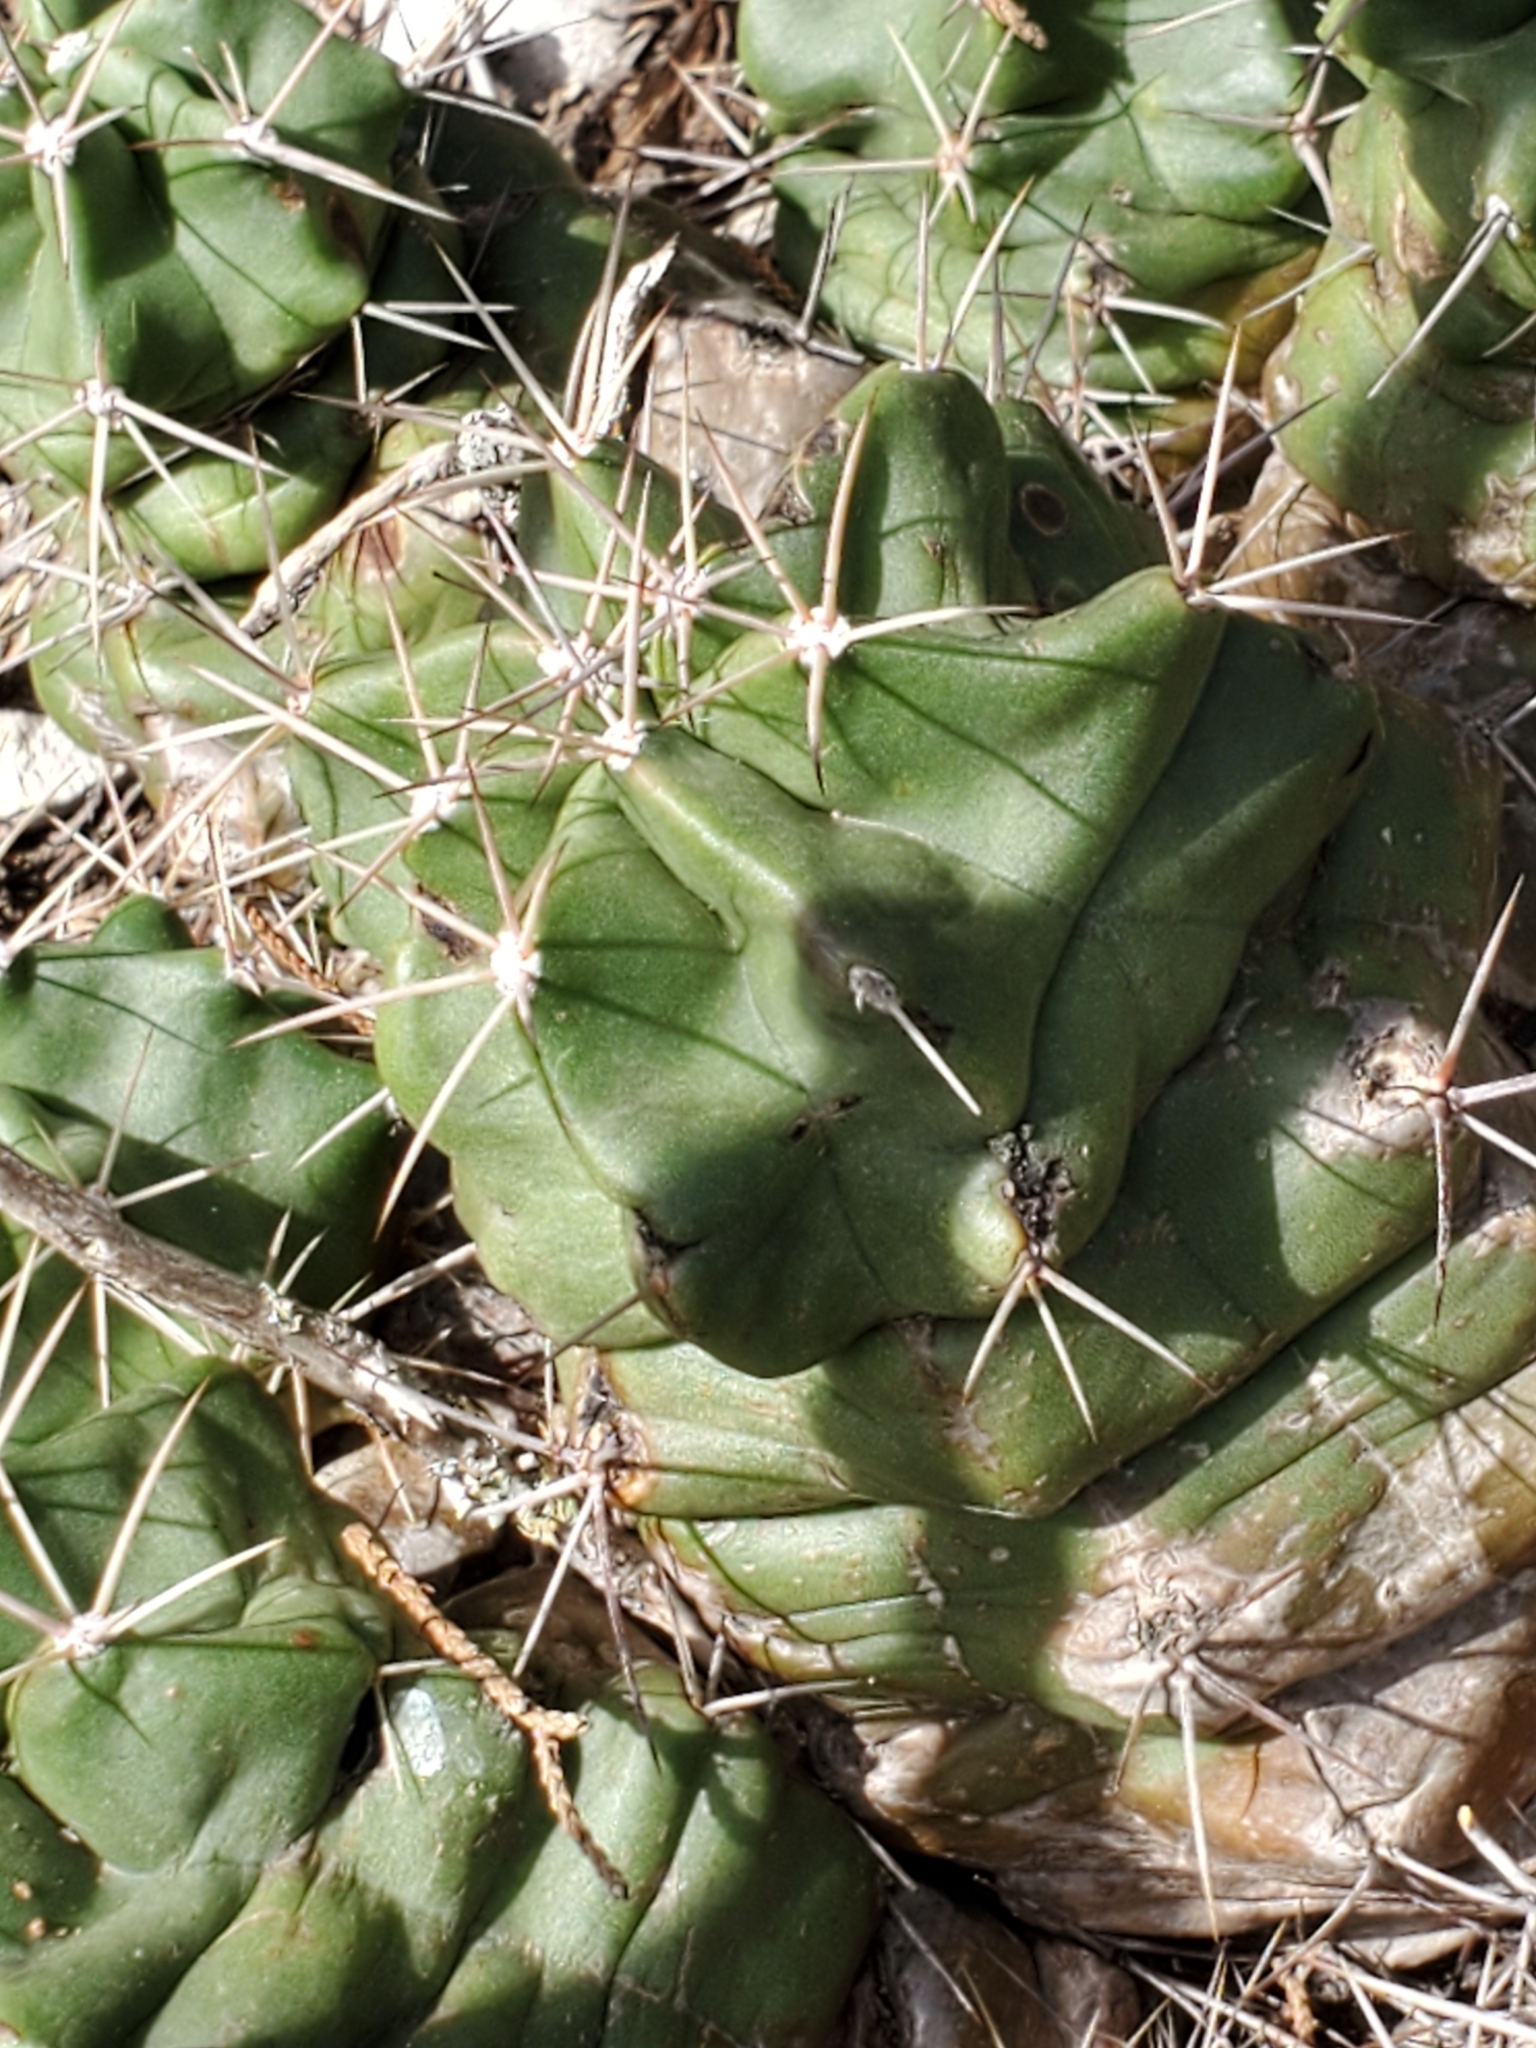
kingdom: Plantae
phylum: Tracheophyta
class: Magnoliopsida
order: Caryophyllales
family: Cactaceae
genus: Echinocereus
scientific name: Echinocereus coccineus
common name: Scarlet hedgehog cactus
